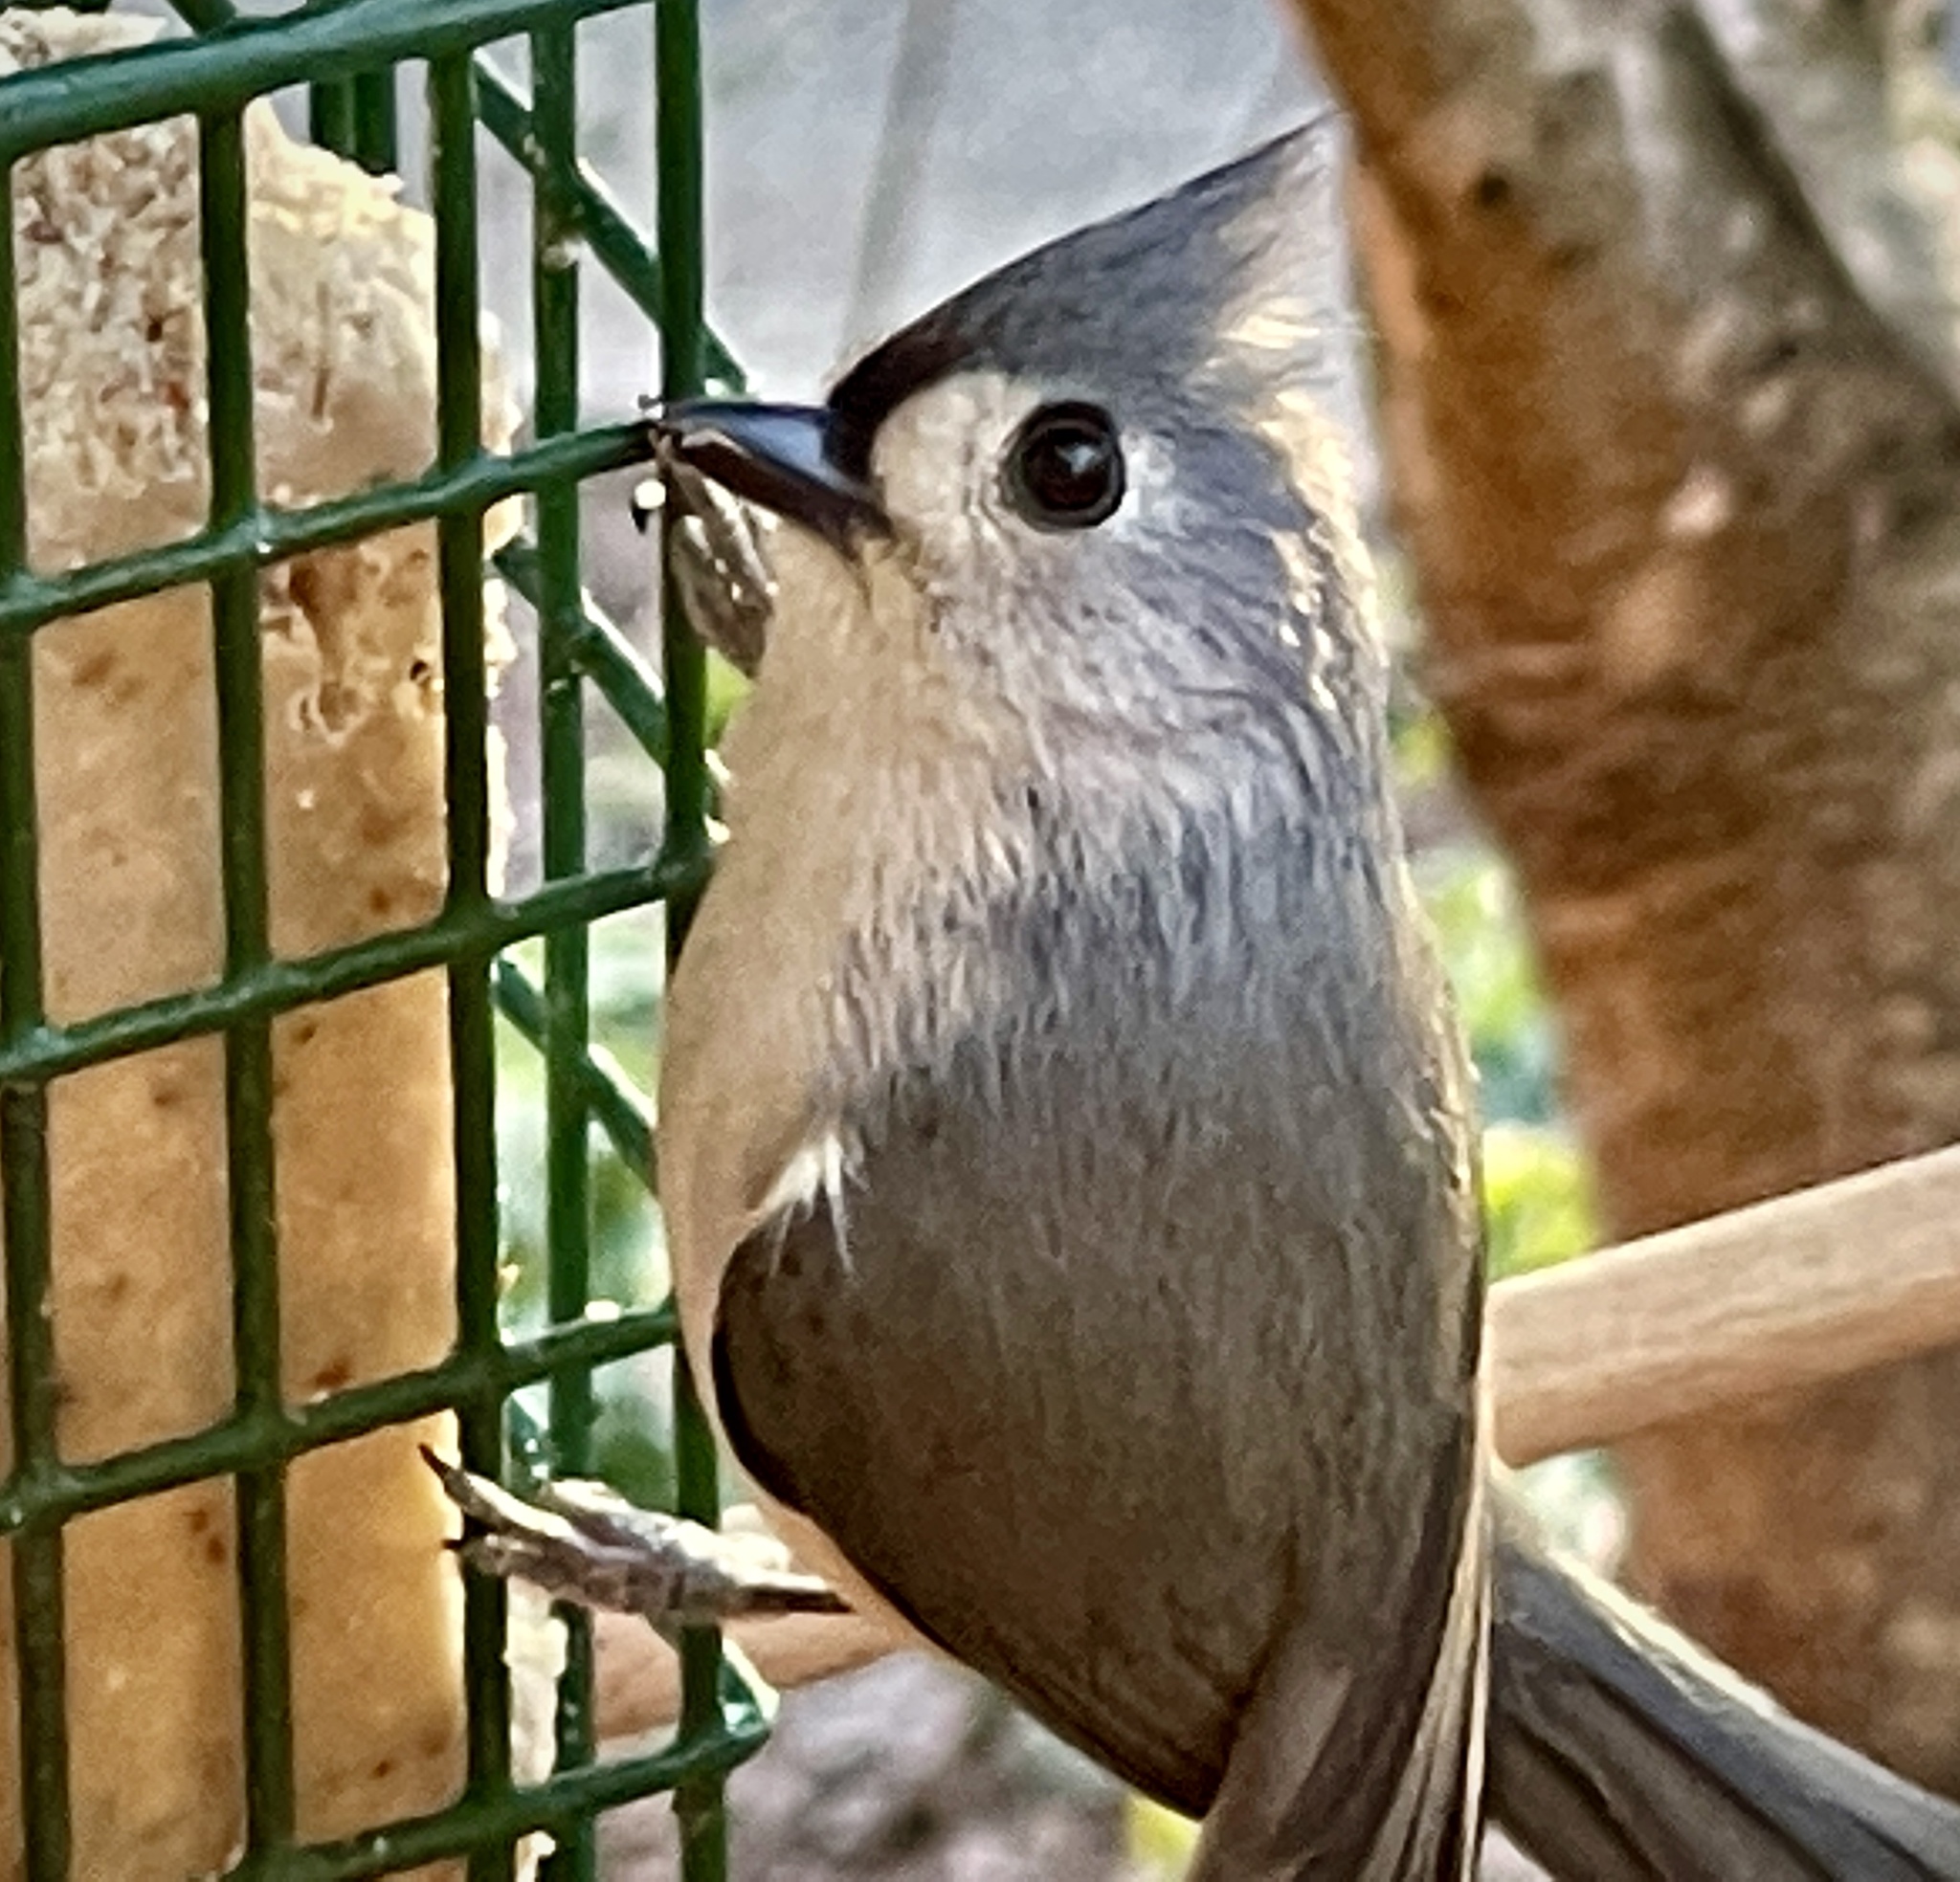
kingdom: Animalia
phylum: Chordata
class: Aves
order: Passeriformes
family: Paridae
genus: Baeolophus
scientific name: Baeolophus bicolor
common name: Tufted titmouse
